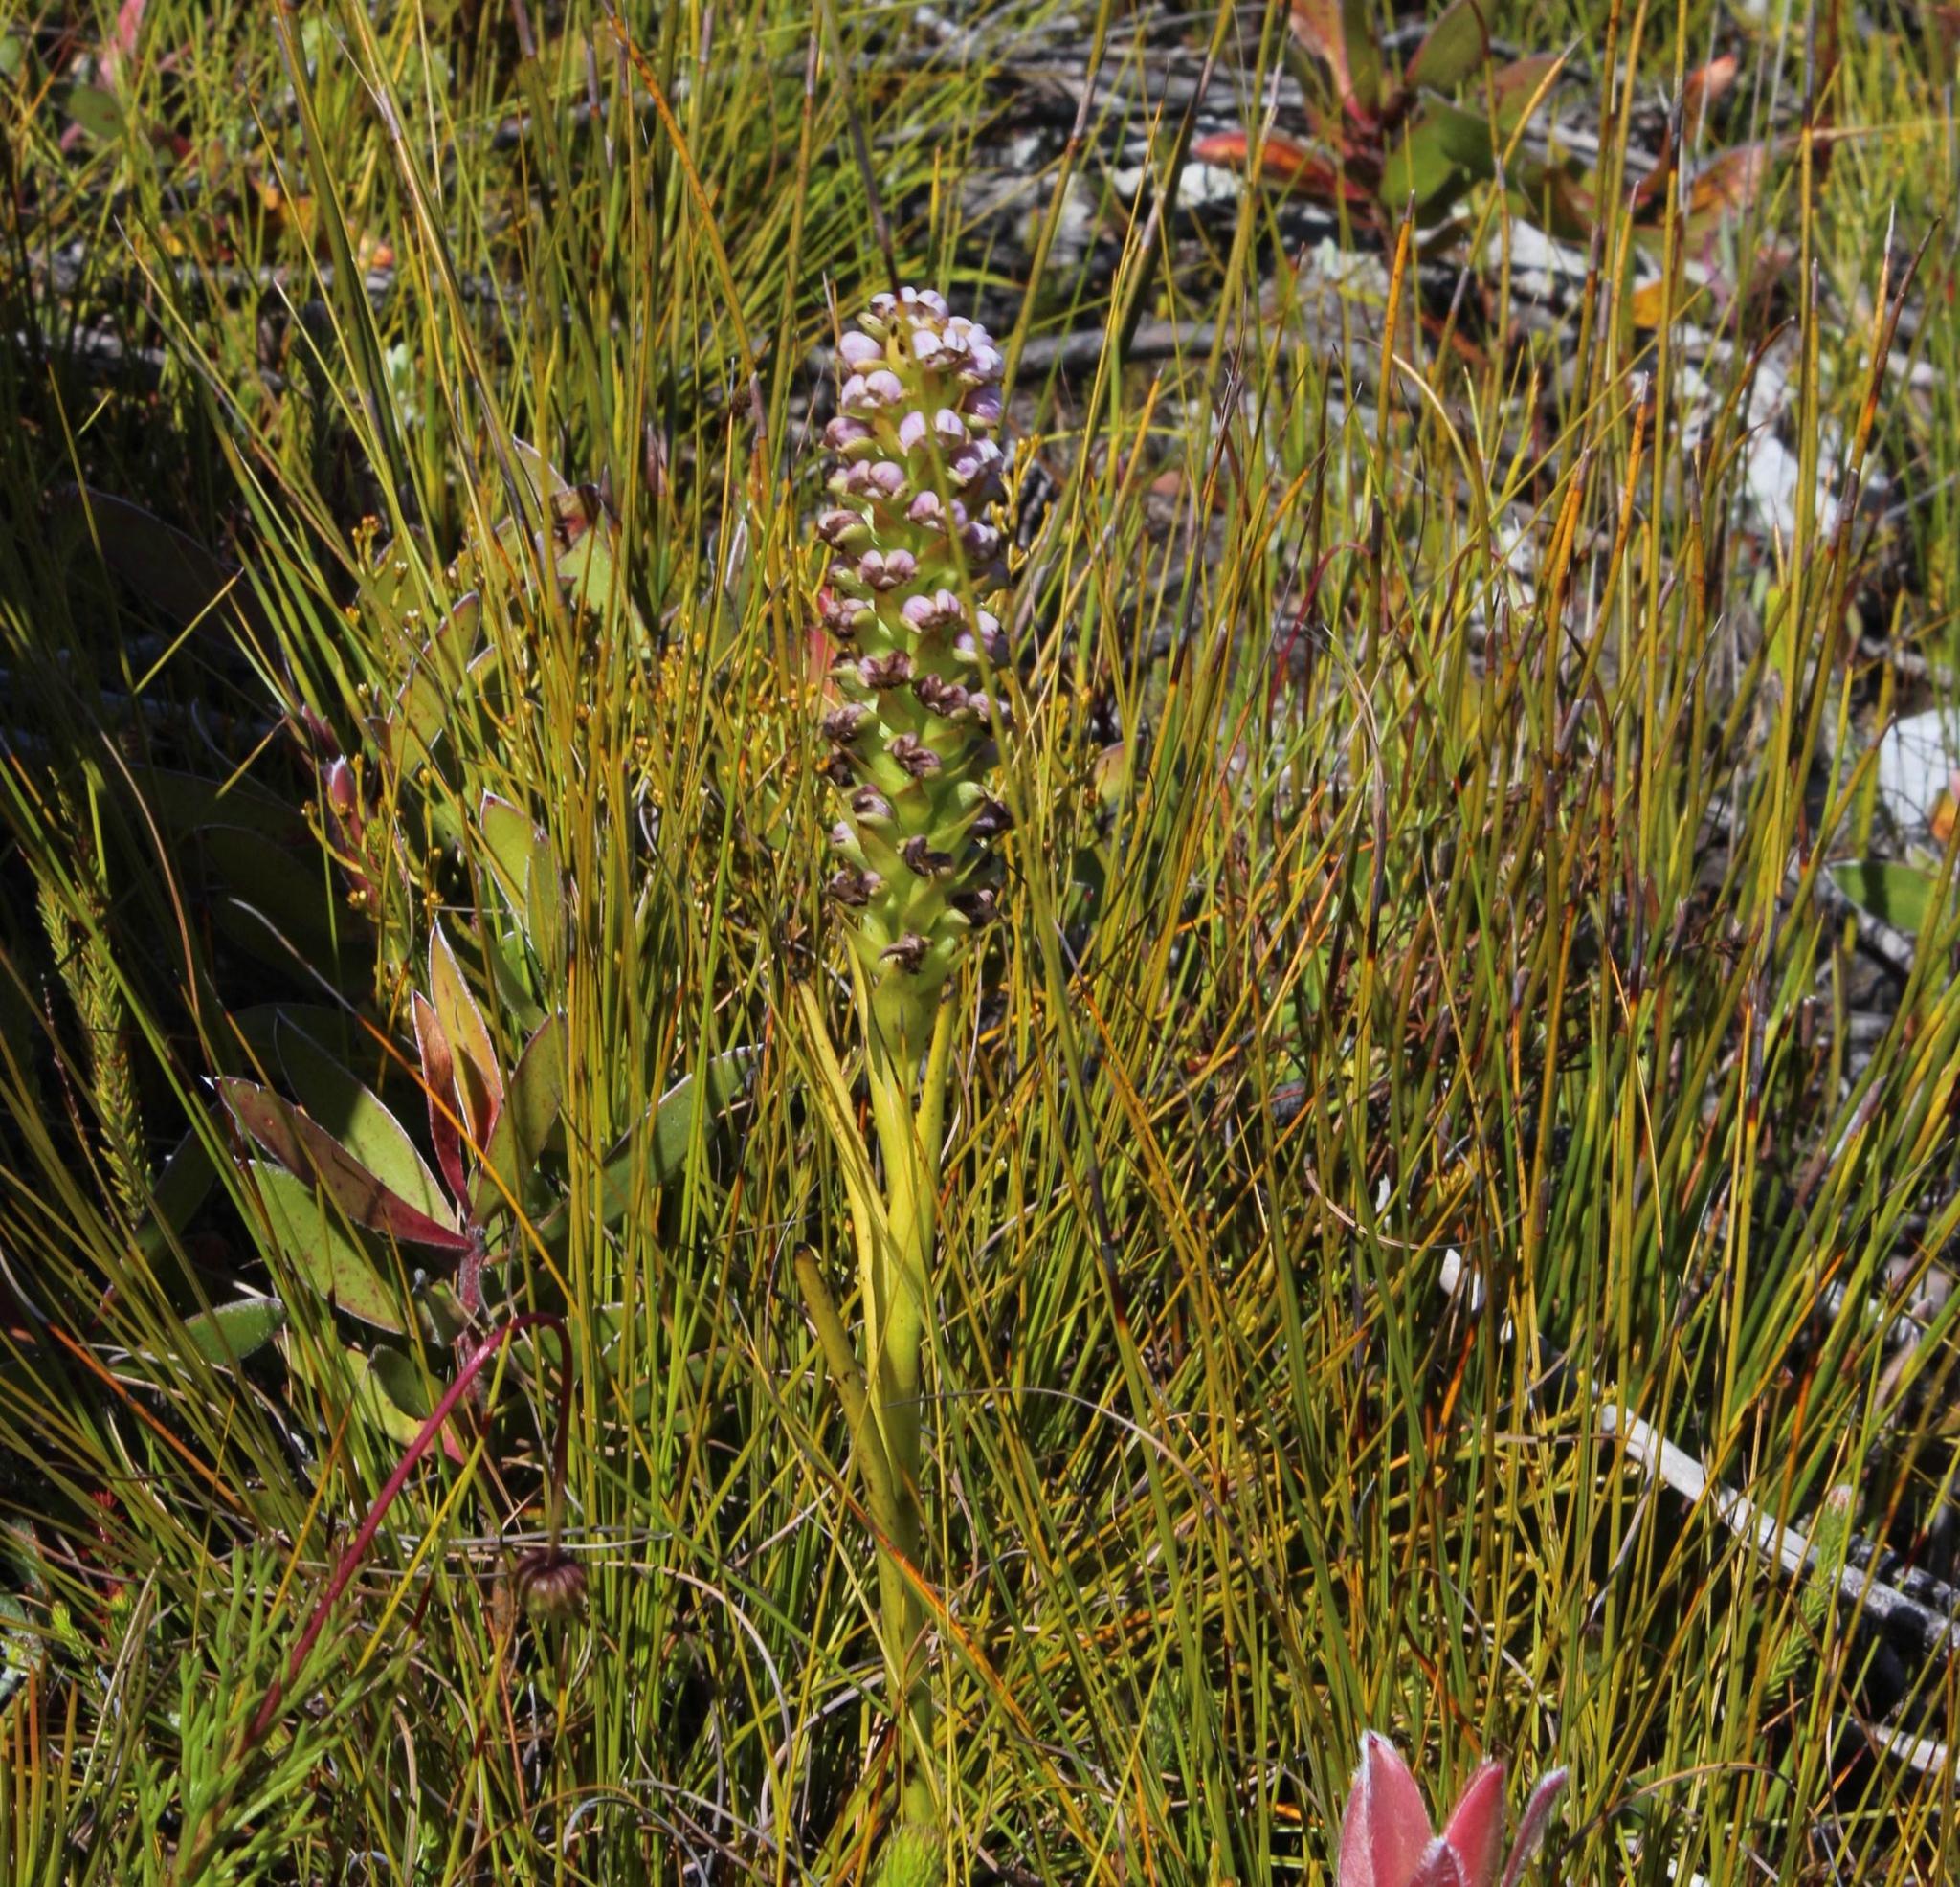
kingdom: Plantae
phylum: Tracheophyta
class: Liliopsida
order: Asparagales
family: Orchidaceae
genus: Evotella
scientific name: Evotella carnosa
